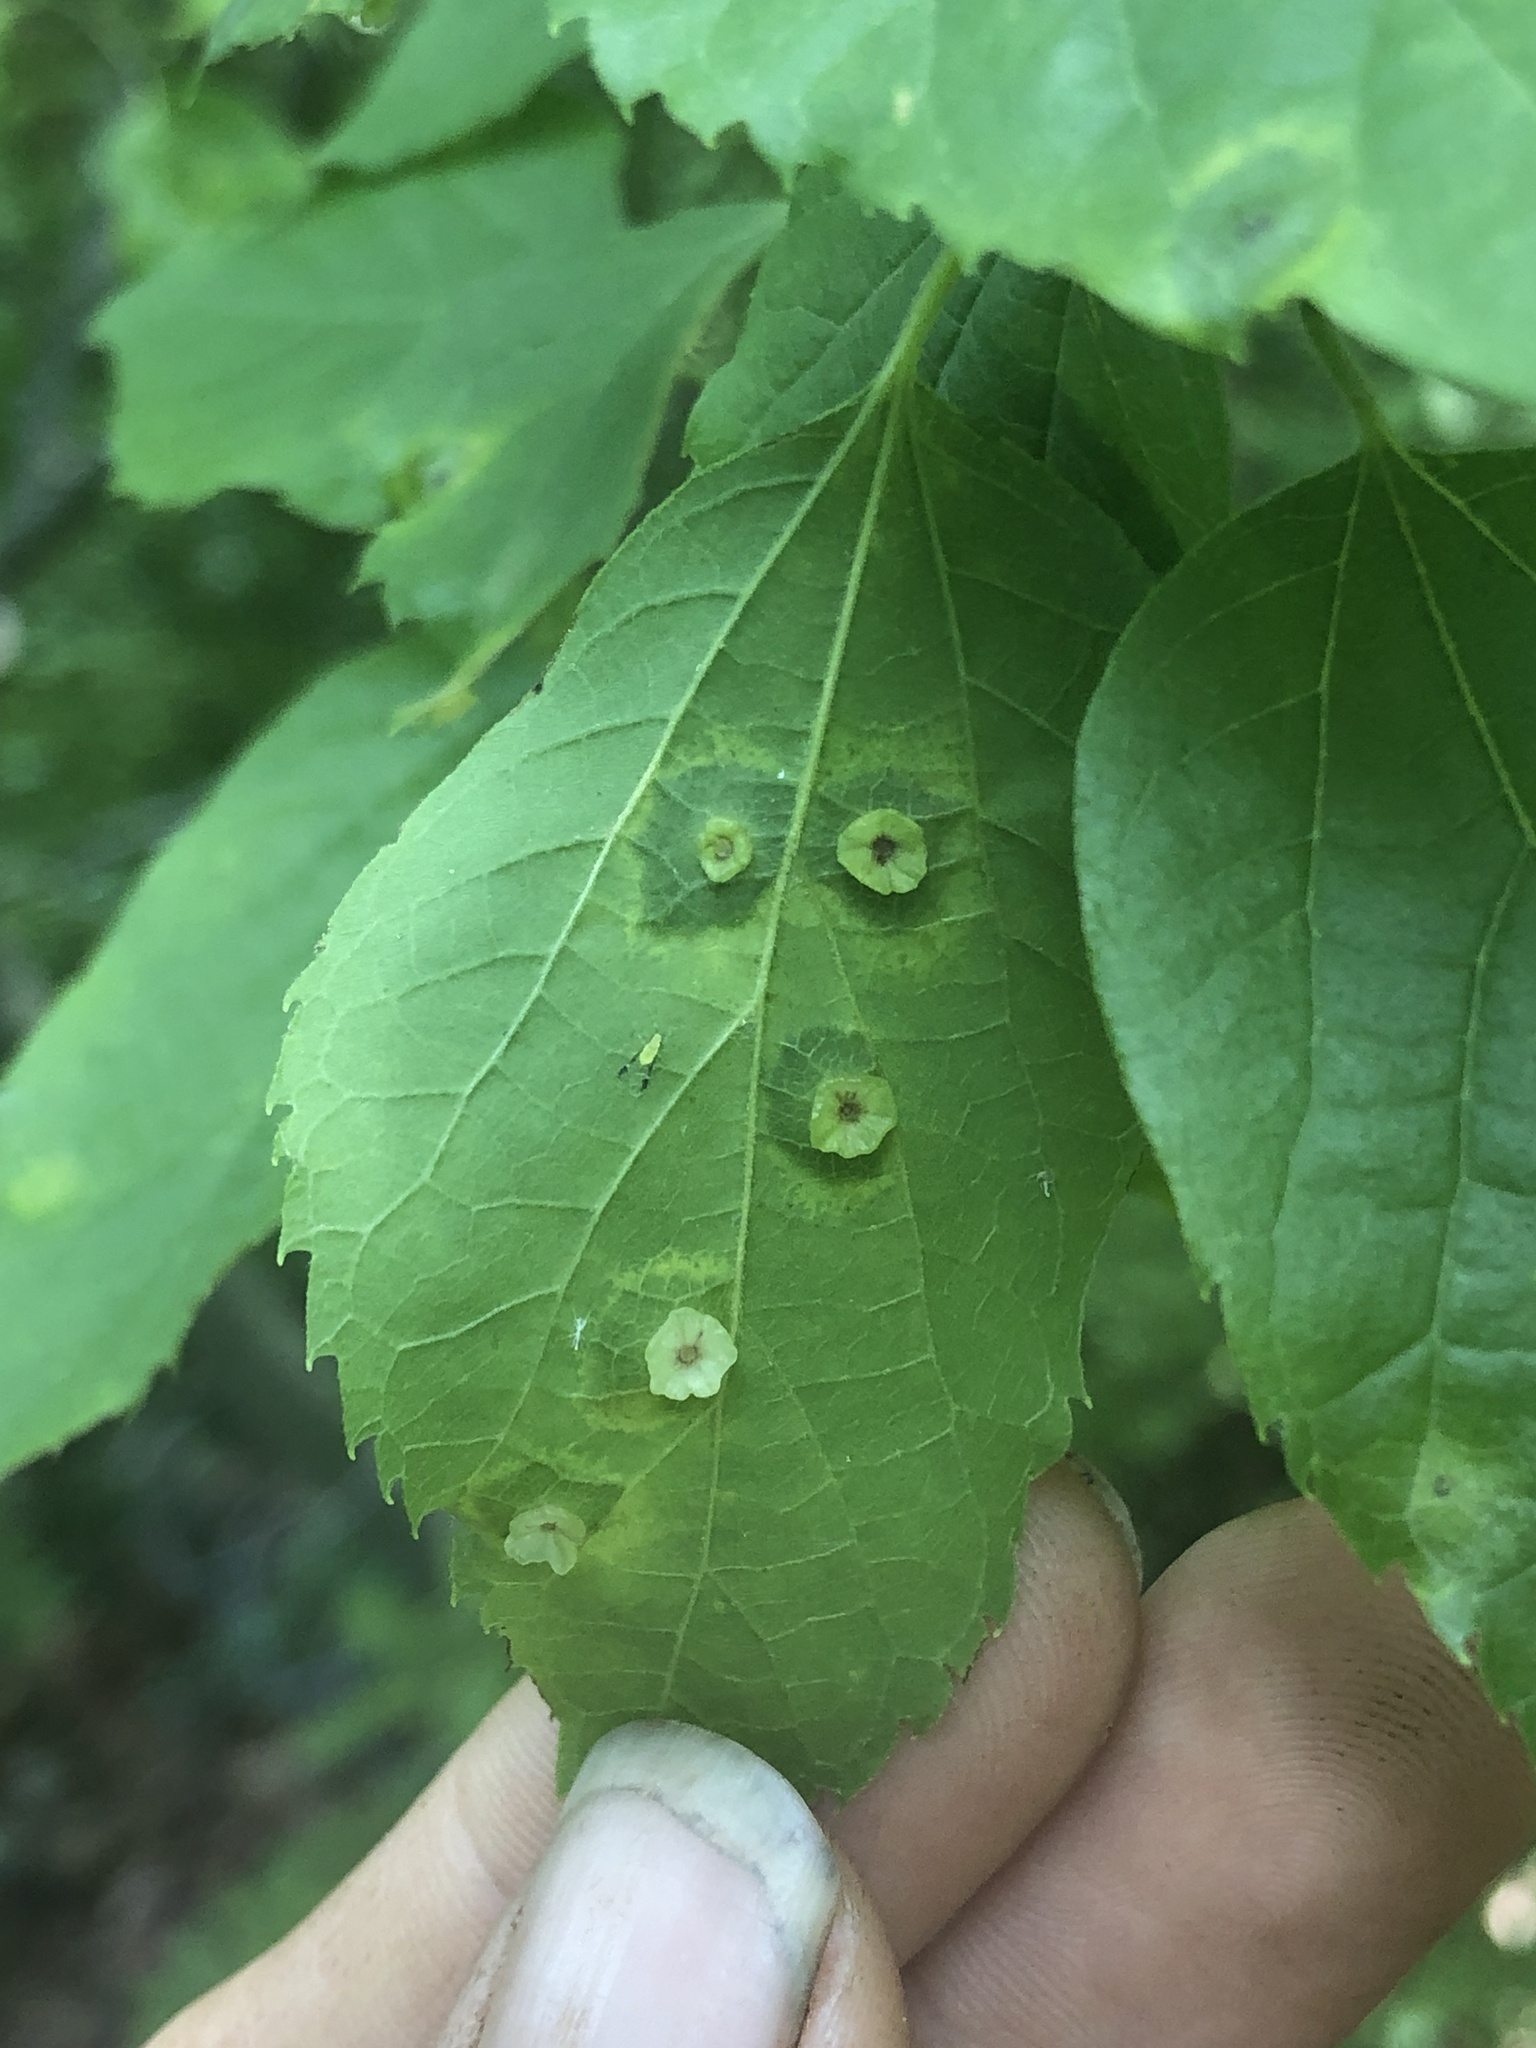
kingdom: Animalia
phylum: Arthropoda
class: Insecta
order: Hemiptera
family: Aphalaridae
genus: Pachypsylla
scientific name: Pachypsylla celtidisasterisca
